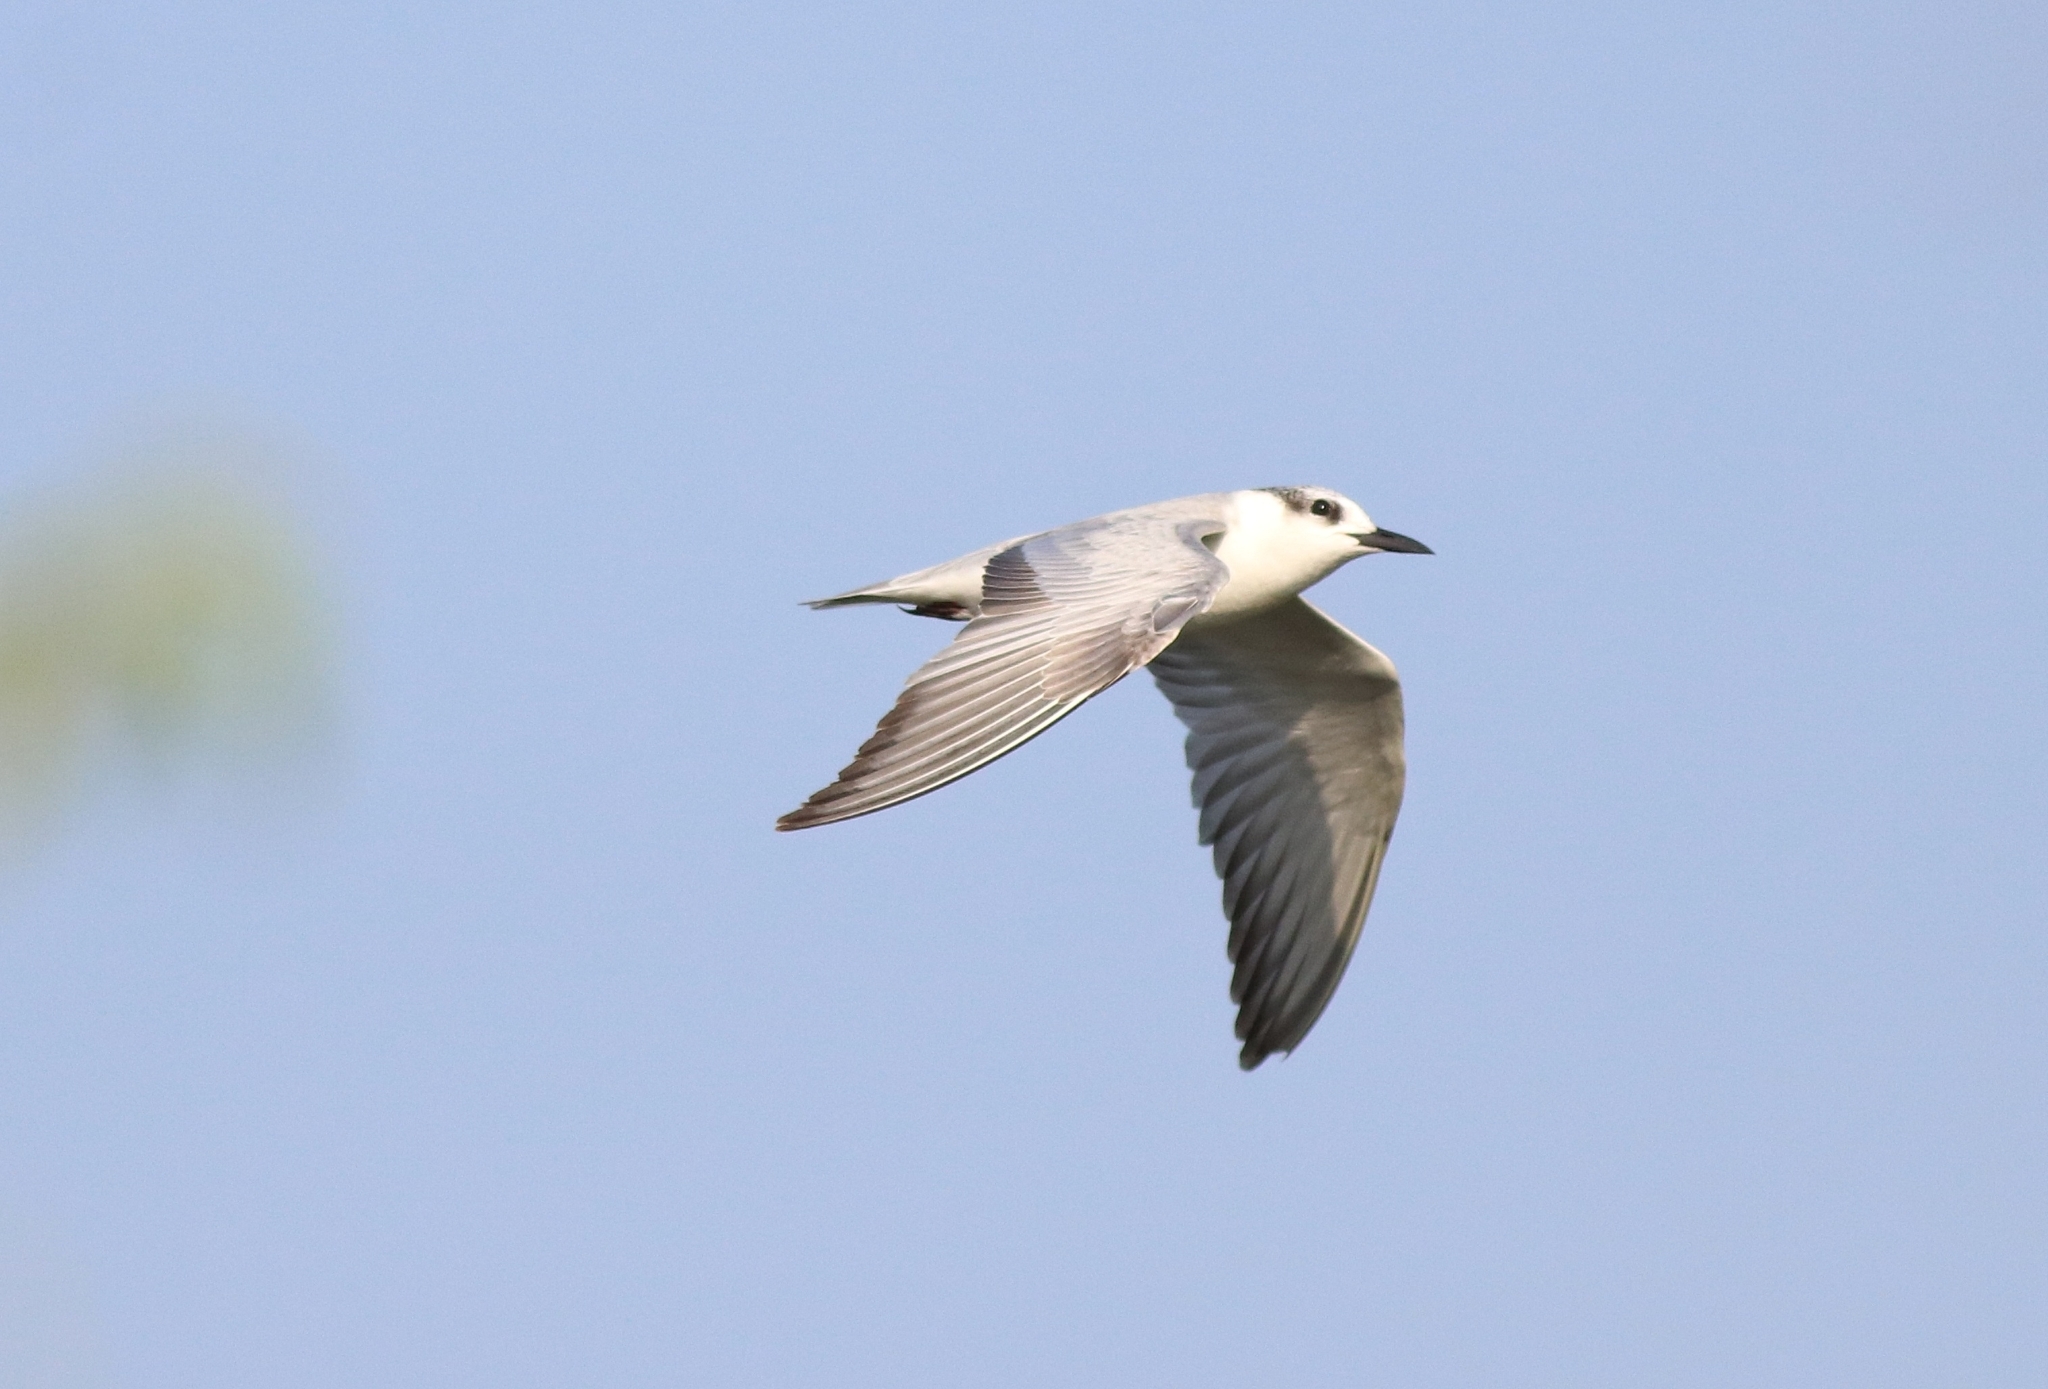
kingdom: Animalia
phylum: Chordata
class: Aves
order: Charadriiformes
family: Laridae
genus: Chlidonias
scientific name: Chlidonias hybrida
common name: Whiskered tern
